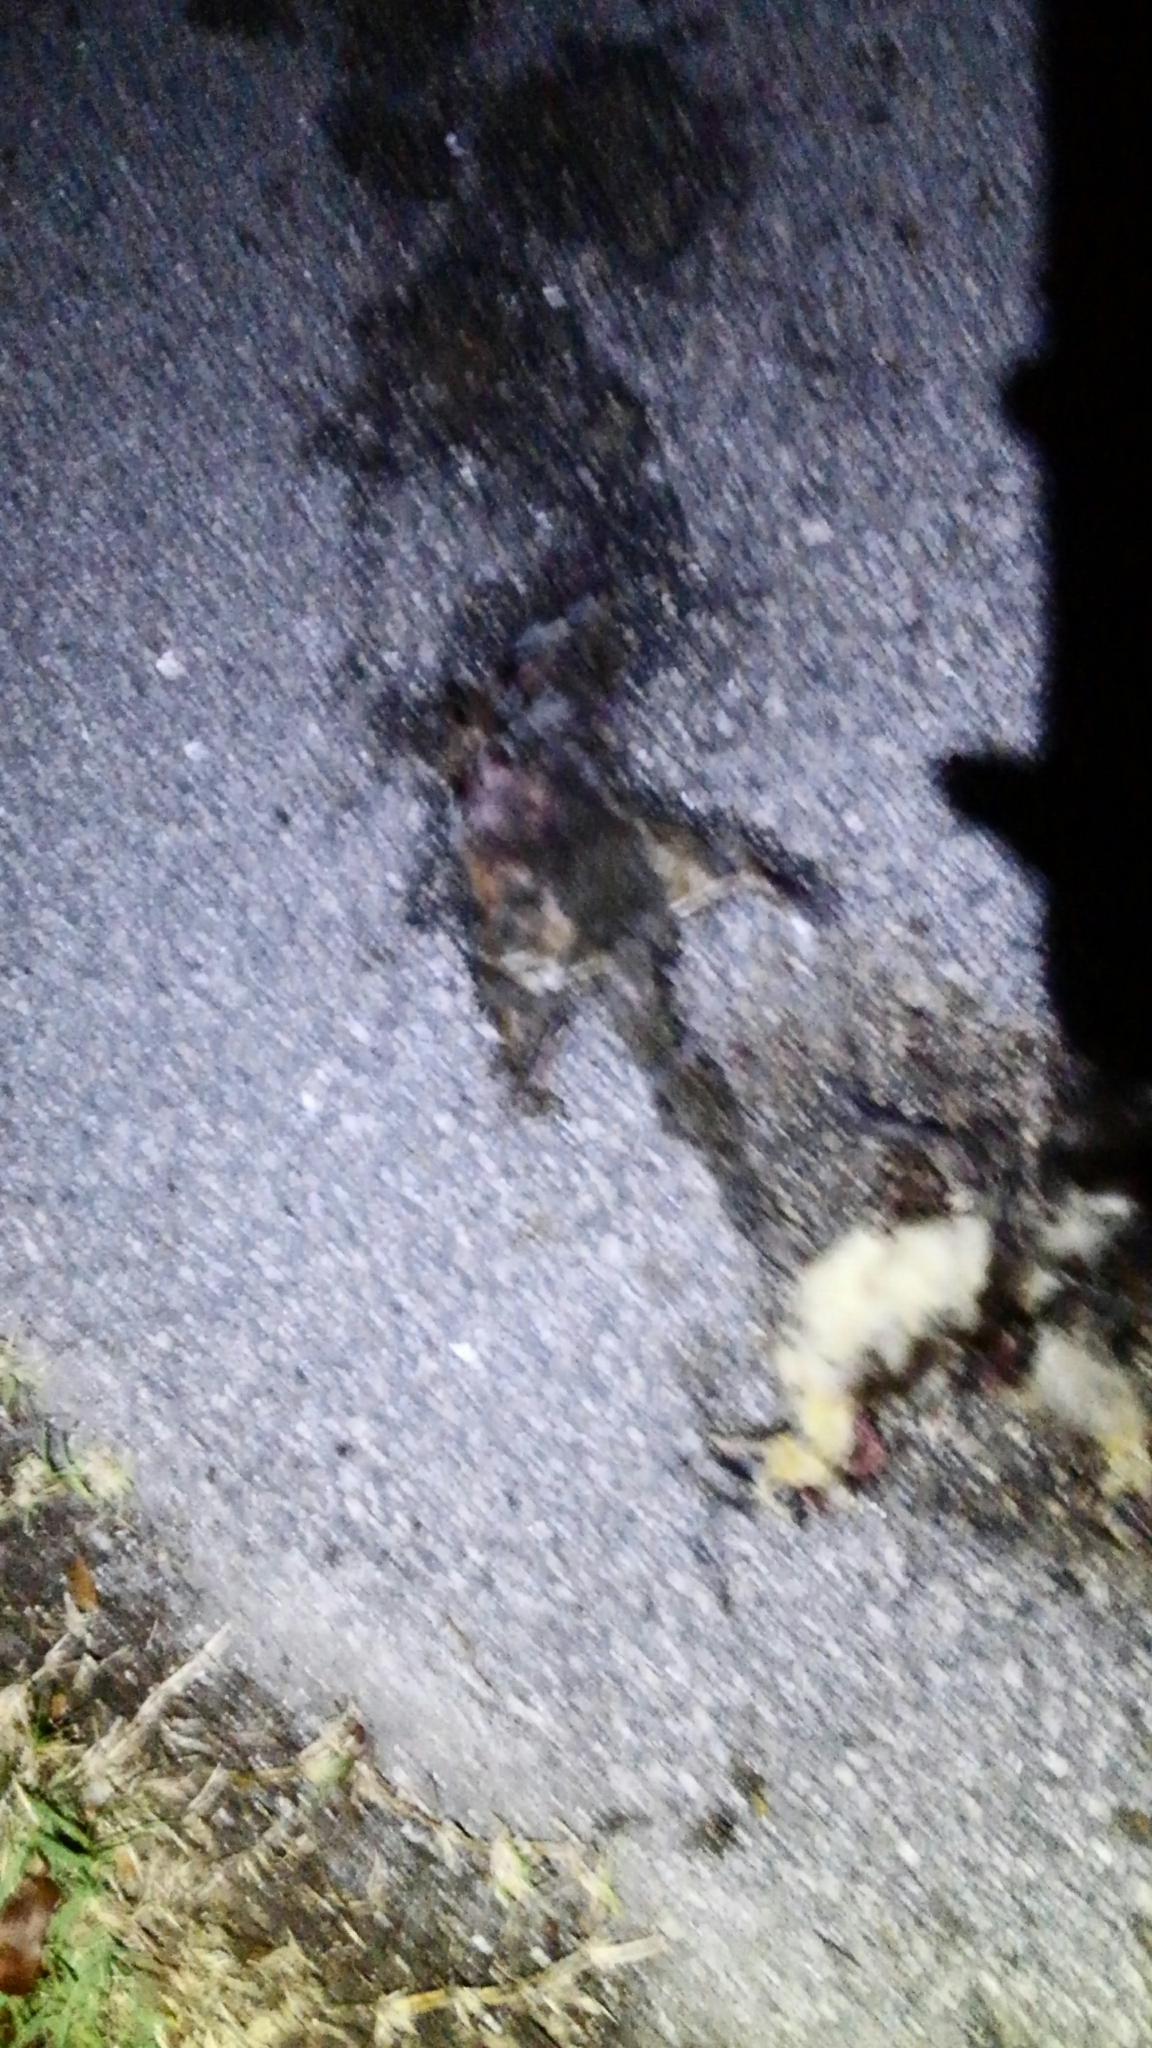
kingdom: Animalia
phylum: Chordata
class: Mammalia
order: Rodentia
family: Sciuridae
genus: Sciurus
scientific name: Sciurus carolinensis
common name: Eastern gray squirrel
